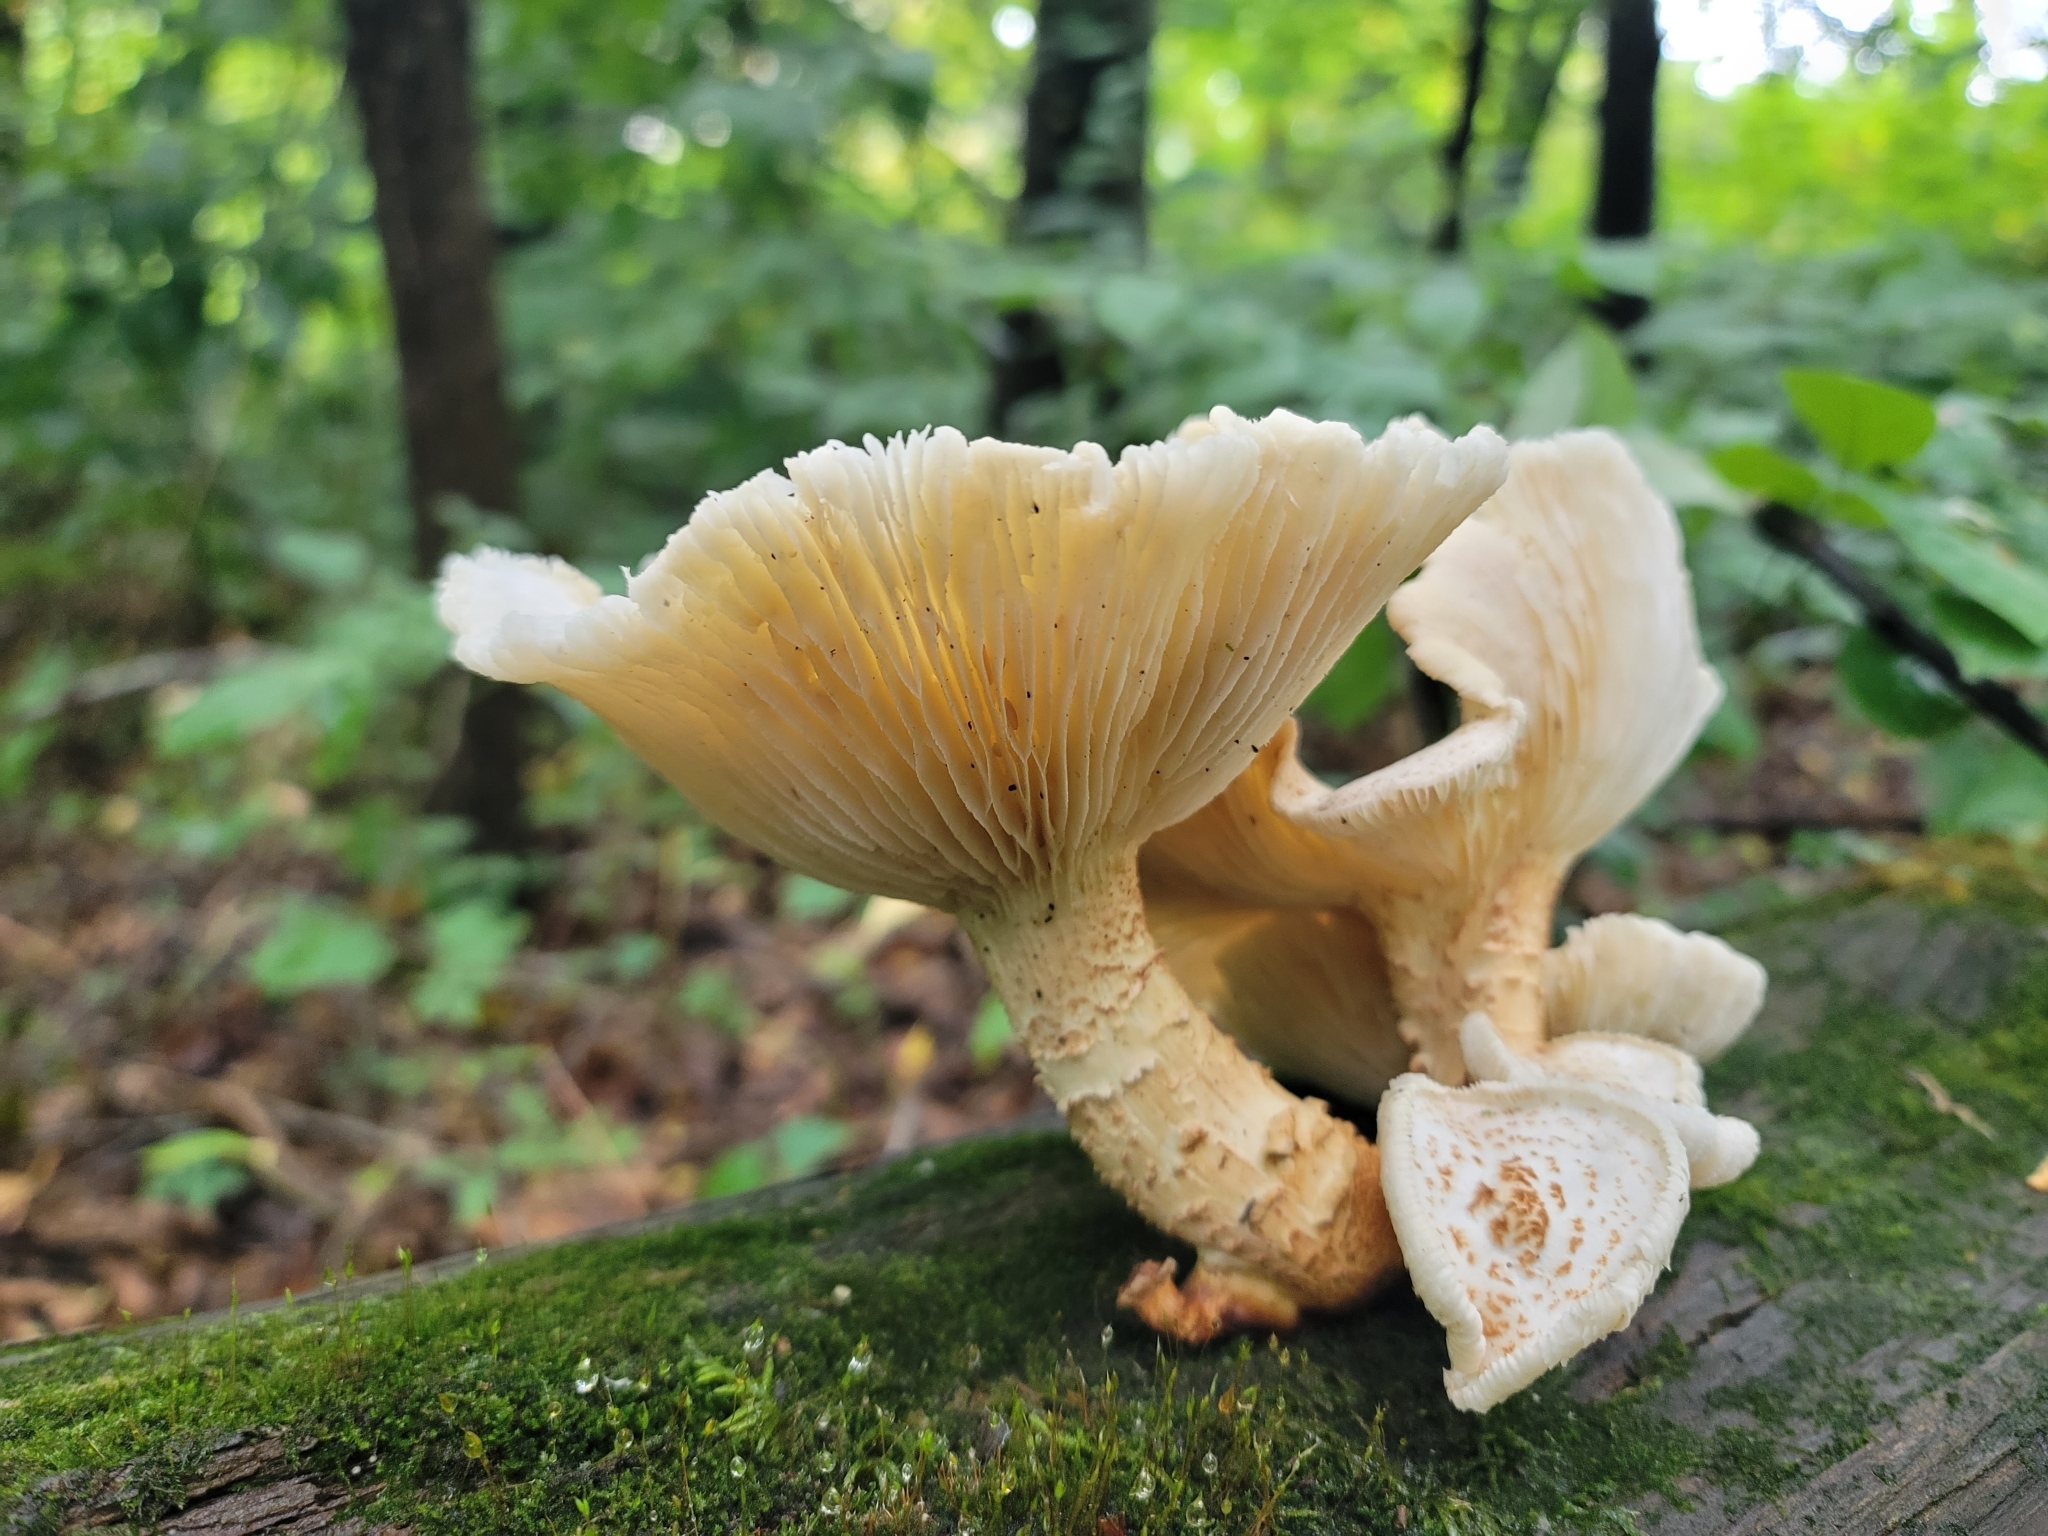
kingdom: Fungi
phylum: Basidiomycota
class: Agaricomycetes
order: Gloeophyllales
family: Gloeophyllaceae
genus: Neolentinus
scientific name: Neolentinus lepideus
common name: Scaly sawgill
